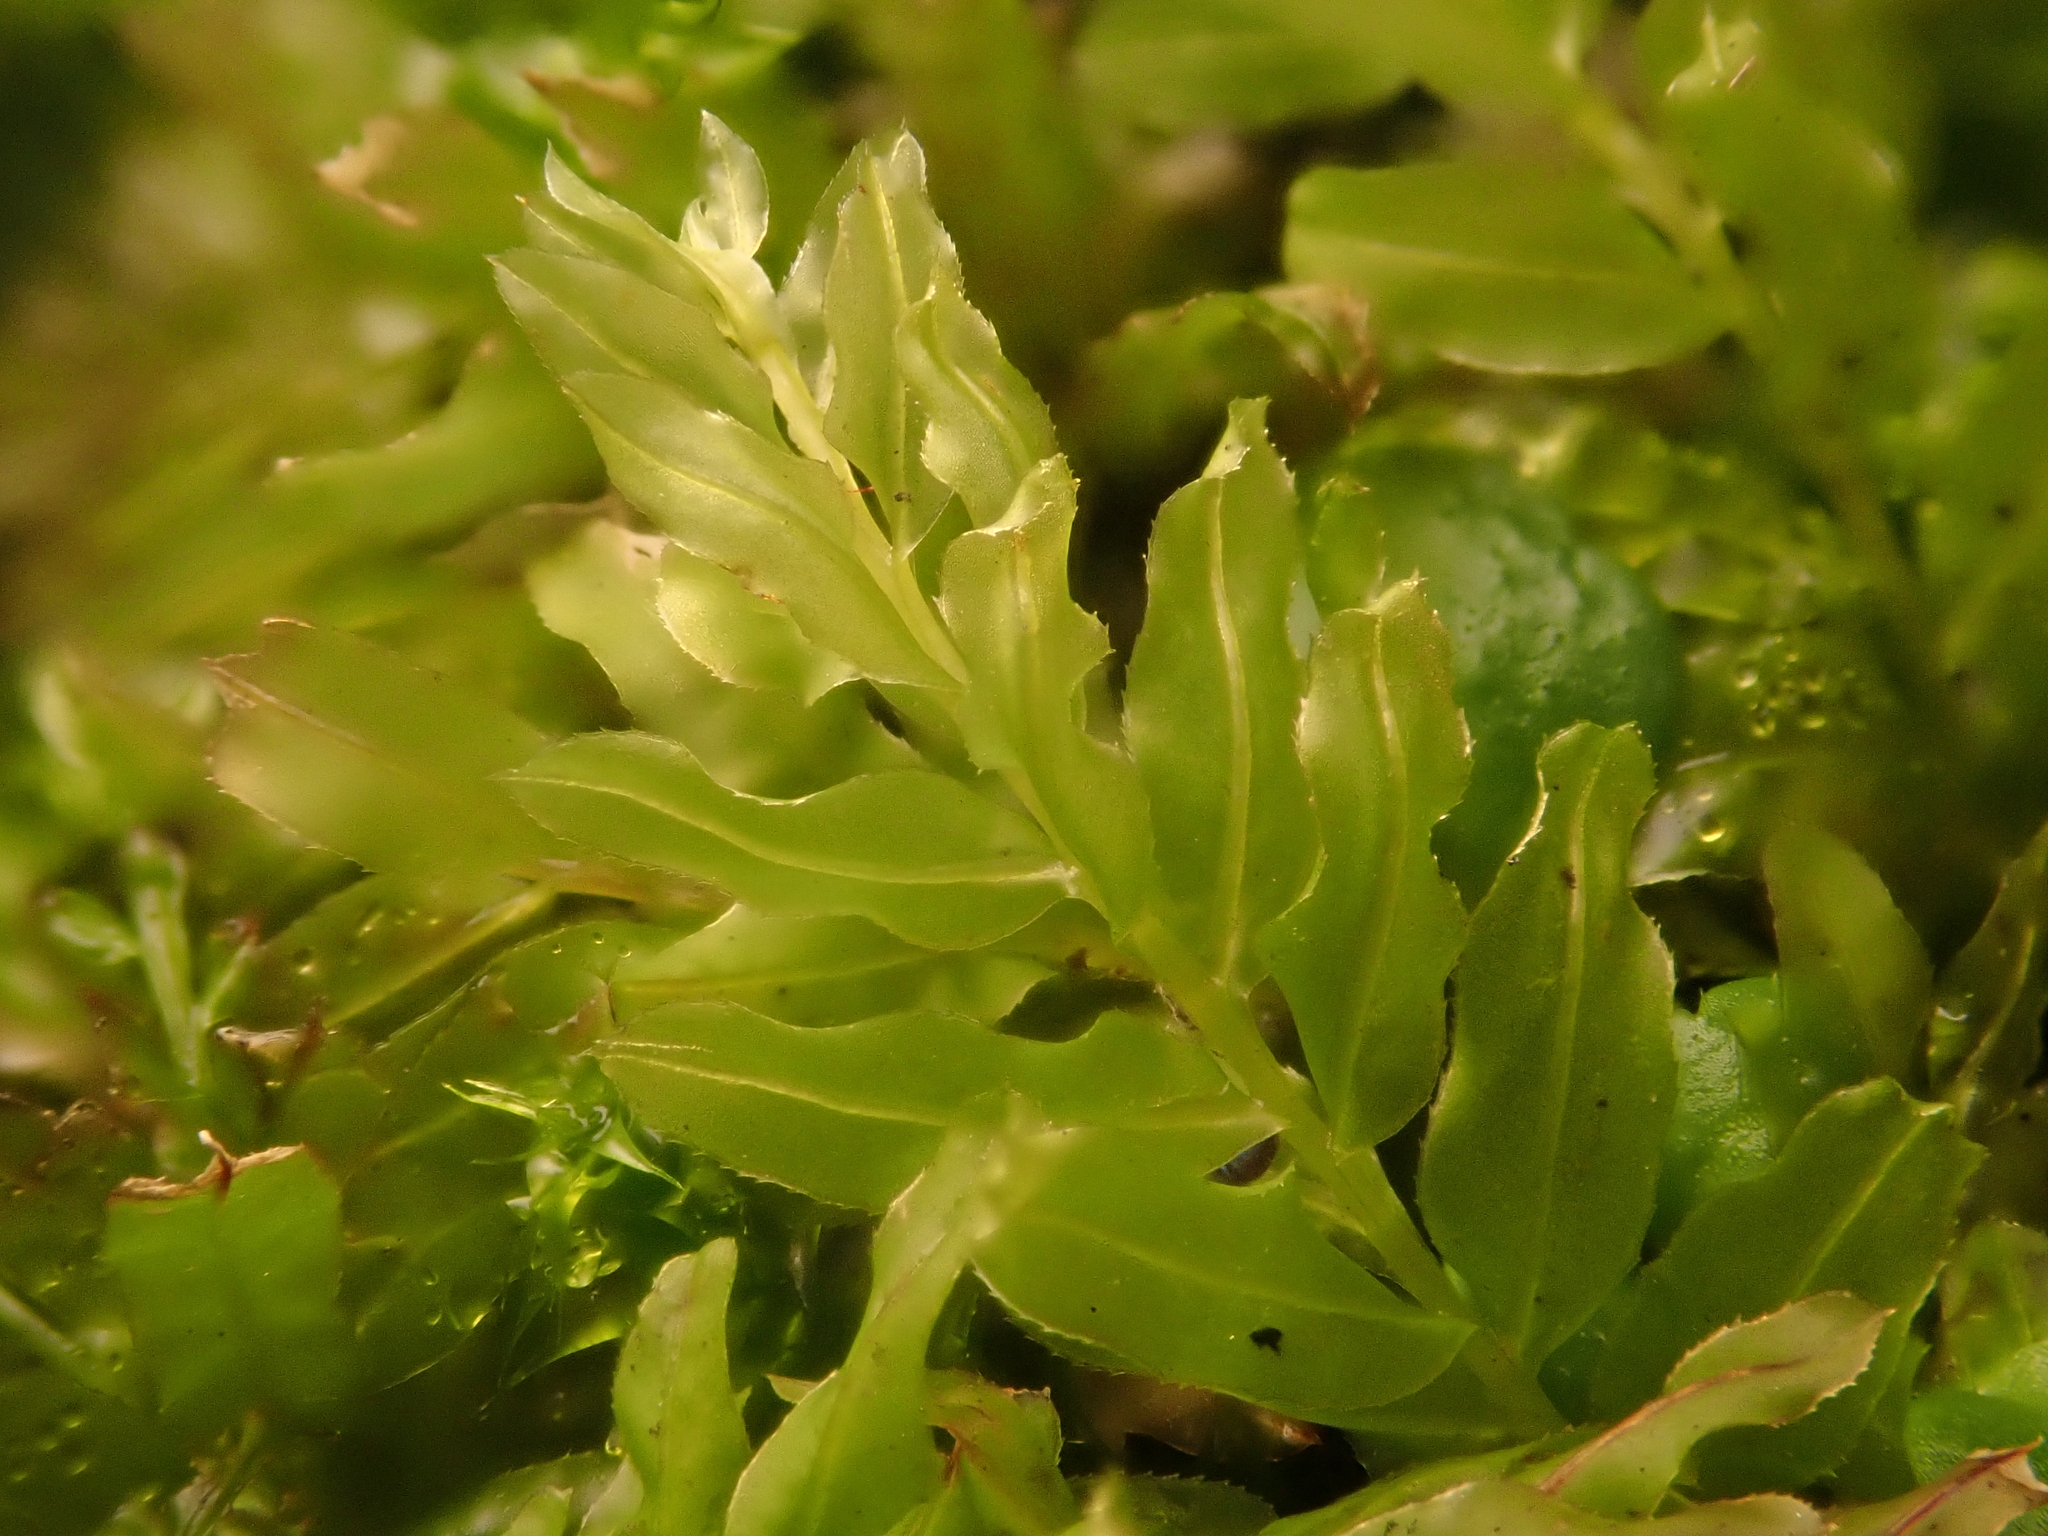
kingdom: Plantae
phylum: Bryophyta
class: Bryopsida
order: Bryales
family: Mniaceae
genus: Plagiomnium
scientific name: Plagiomnium undulatum
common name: Hart's-tongue thyme-moss
